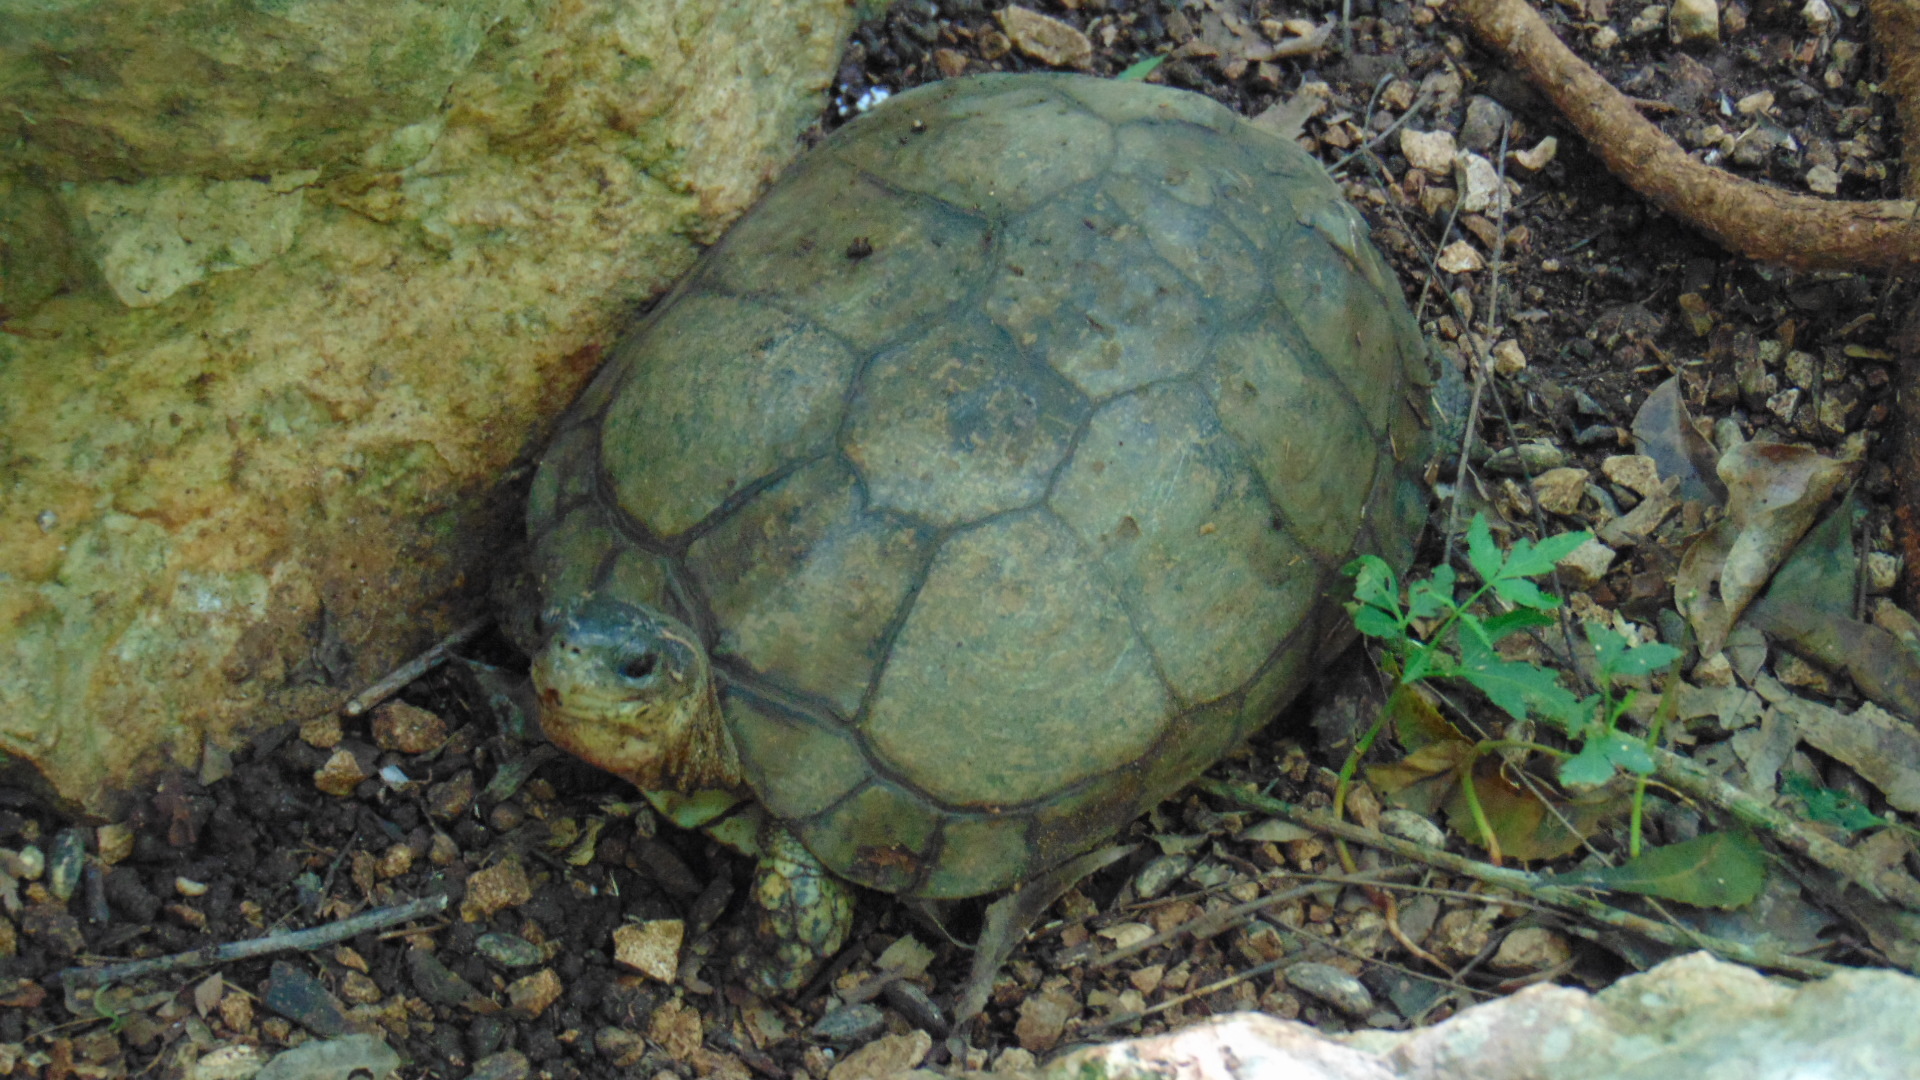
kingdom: Animalia
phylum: Chordata
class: Testudines
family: Geoemydidae
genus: Rhinoclemmys
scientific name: Rhinoclemmys areolata
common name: Furrowed wood turtle
